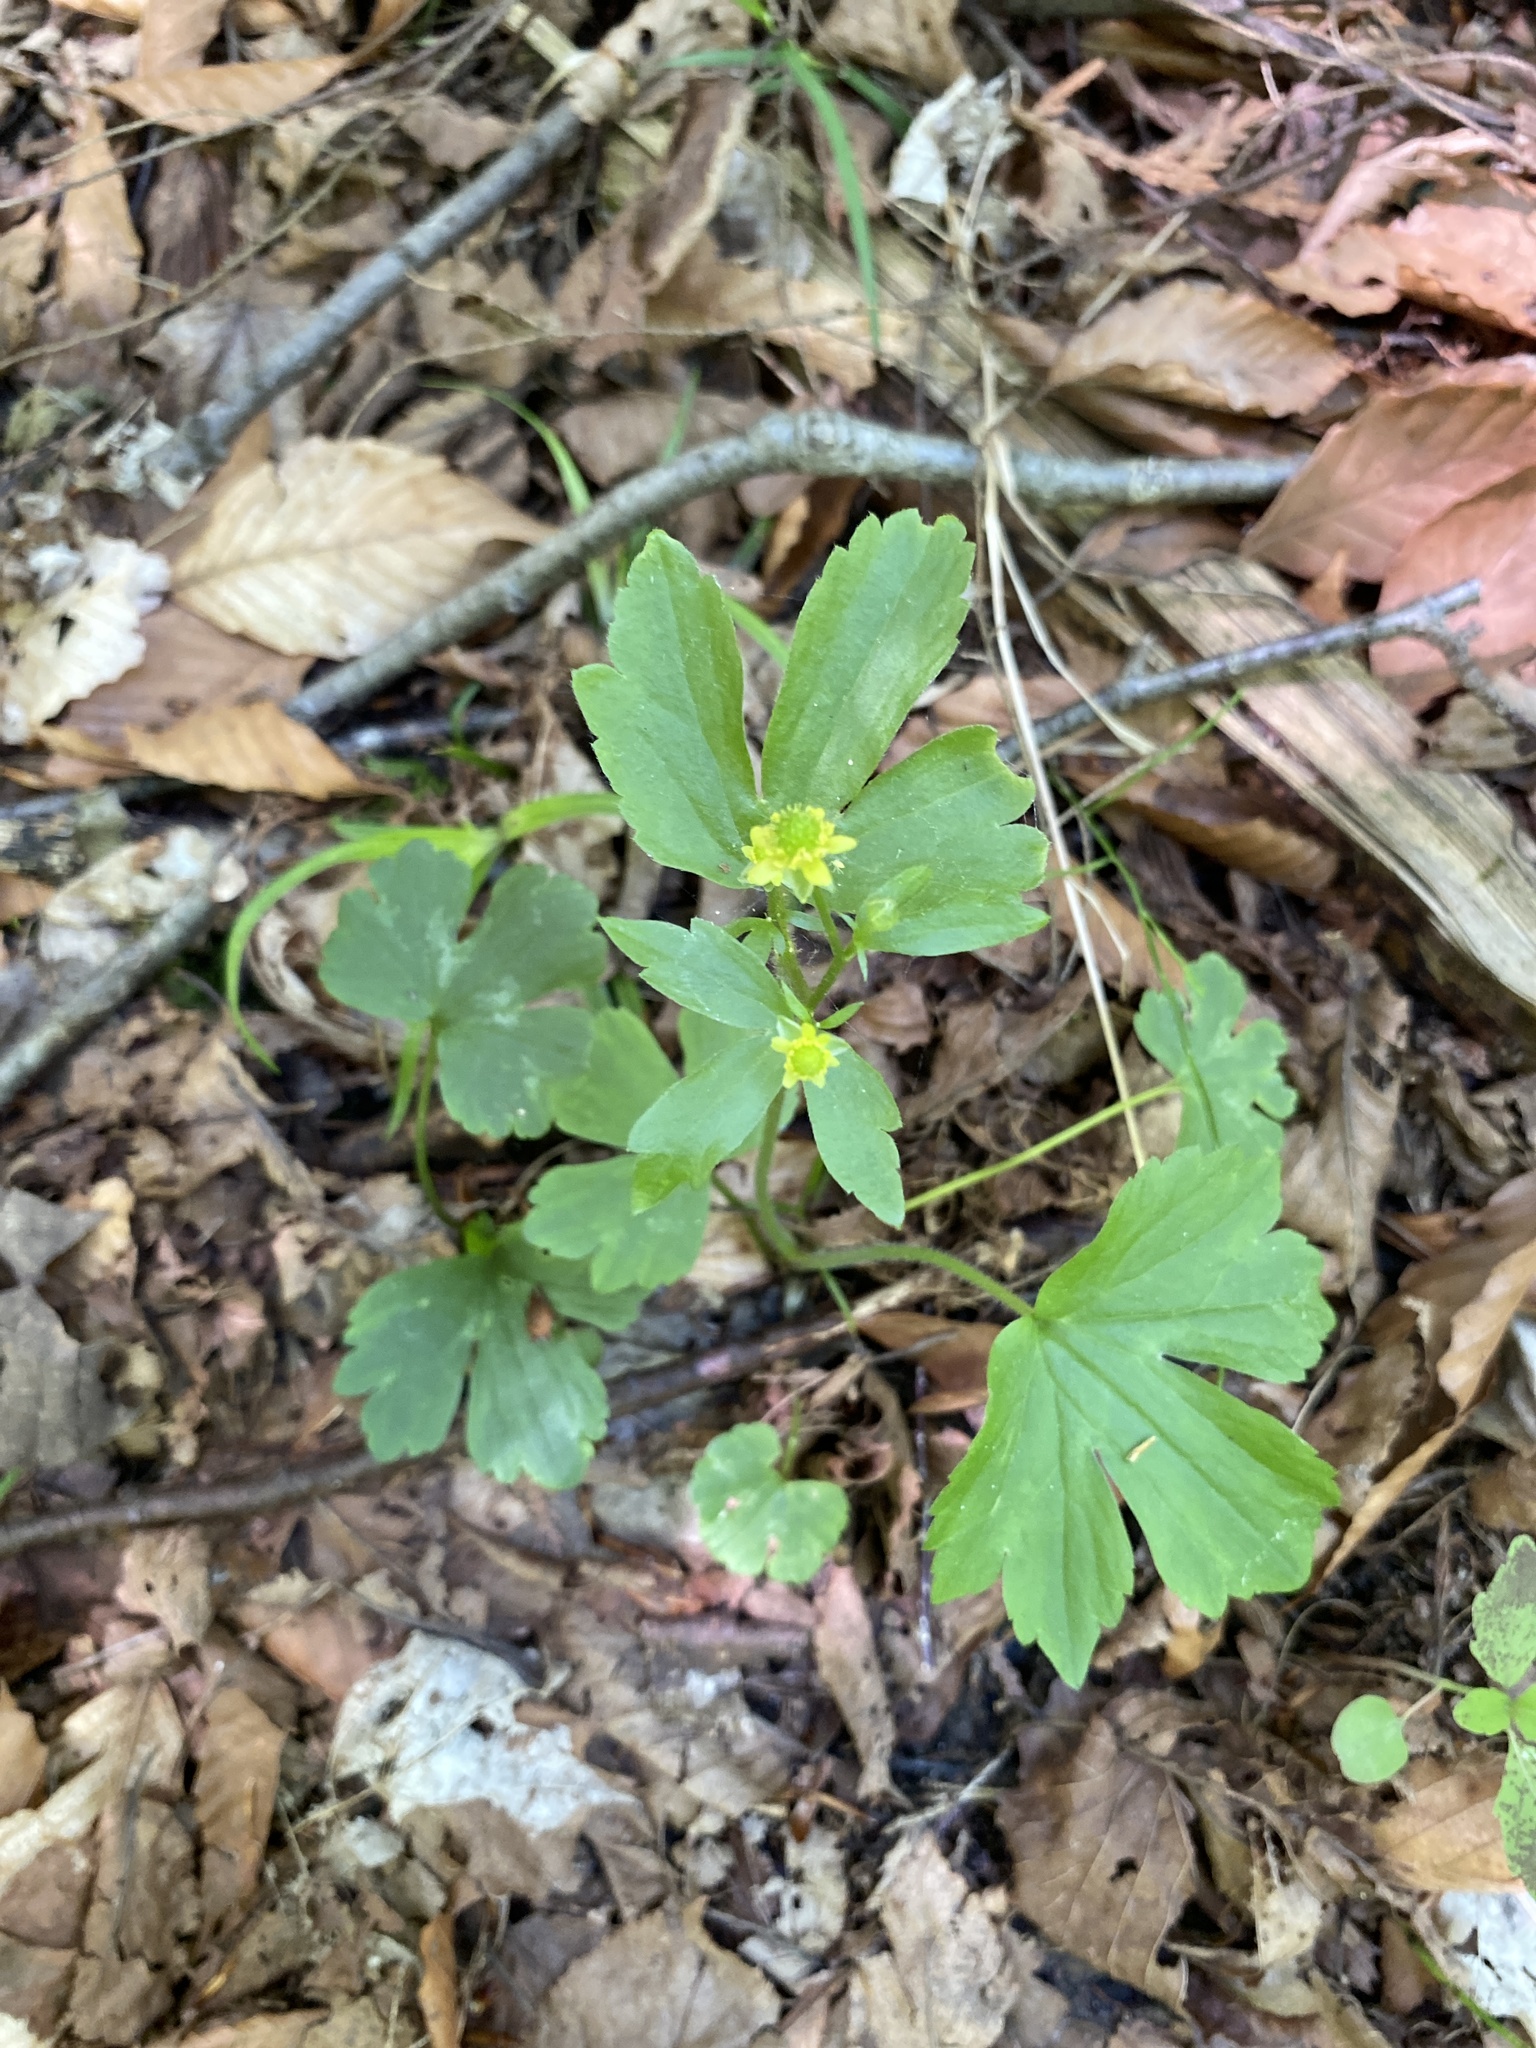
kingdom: Plantae
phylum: Tracheophyta
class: Magnoliopsida
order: Ranunculales
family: Ranunculaceae
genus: Ranunculus
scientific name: Ranunculus recurvatus
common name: Blisterwort
